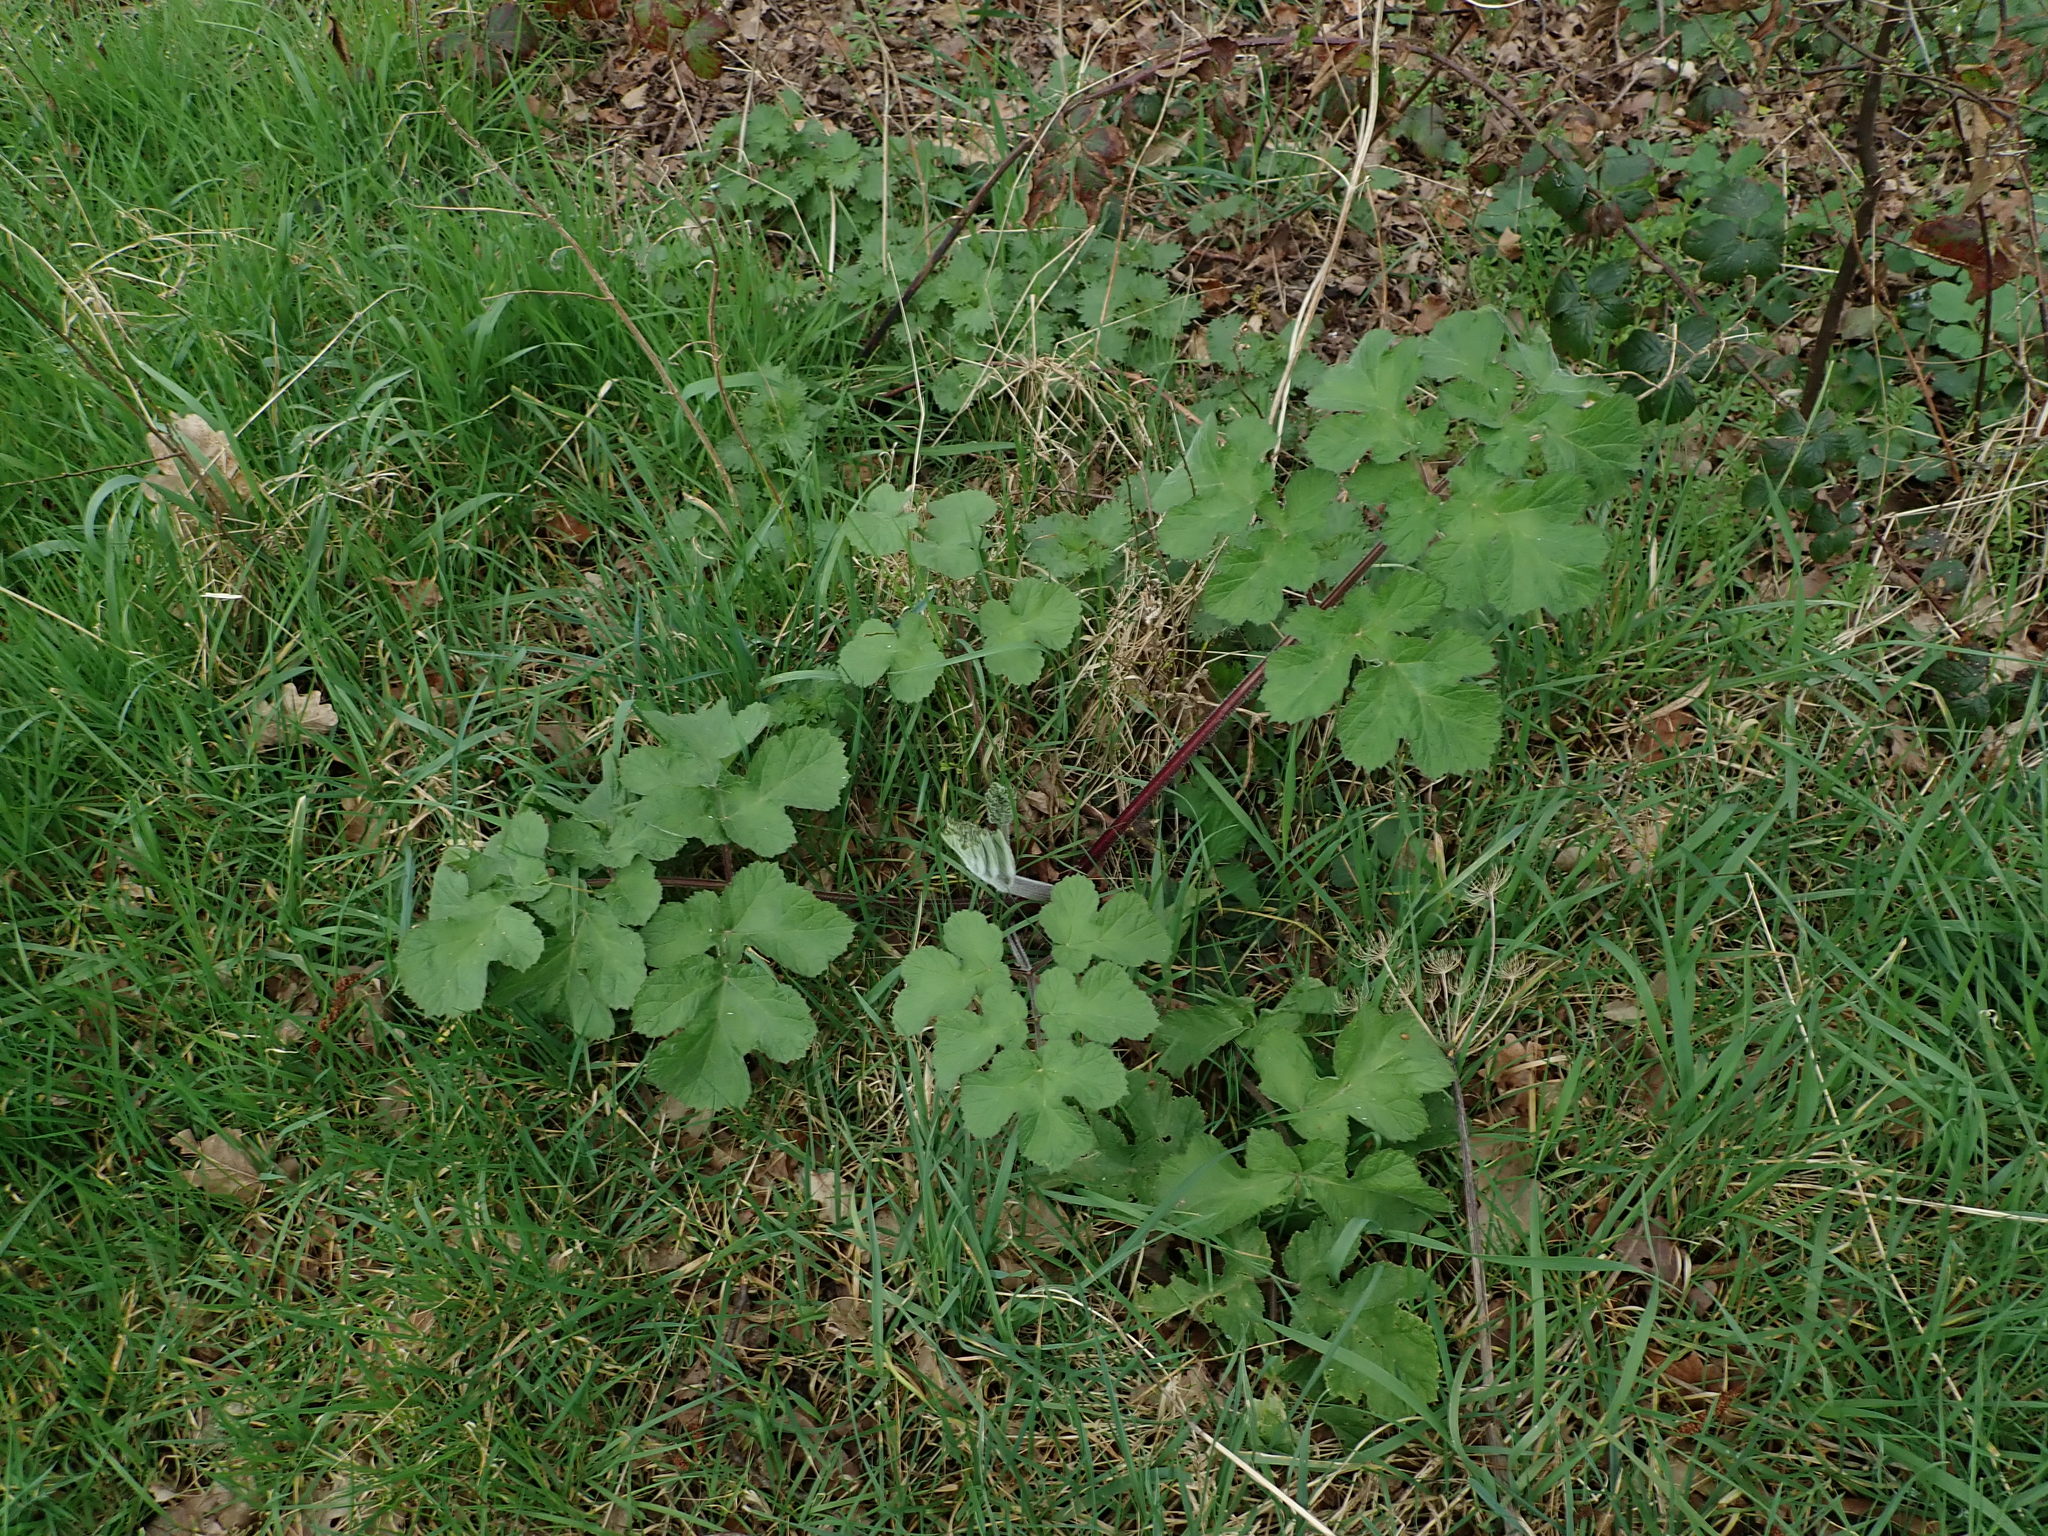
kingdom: Plantae
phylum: Tracheophyta
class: Magnoliopsida
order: Apiales
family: Apiaceae
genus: Heracleum
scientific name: Heracleum sphondylium
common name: Hogweed
